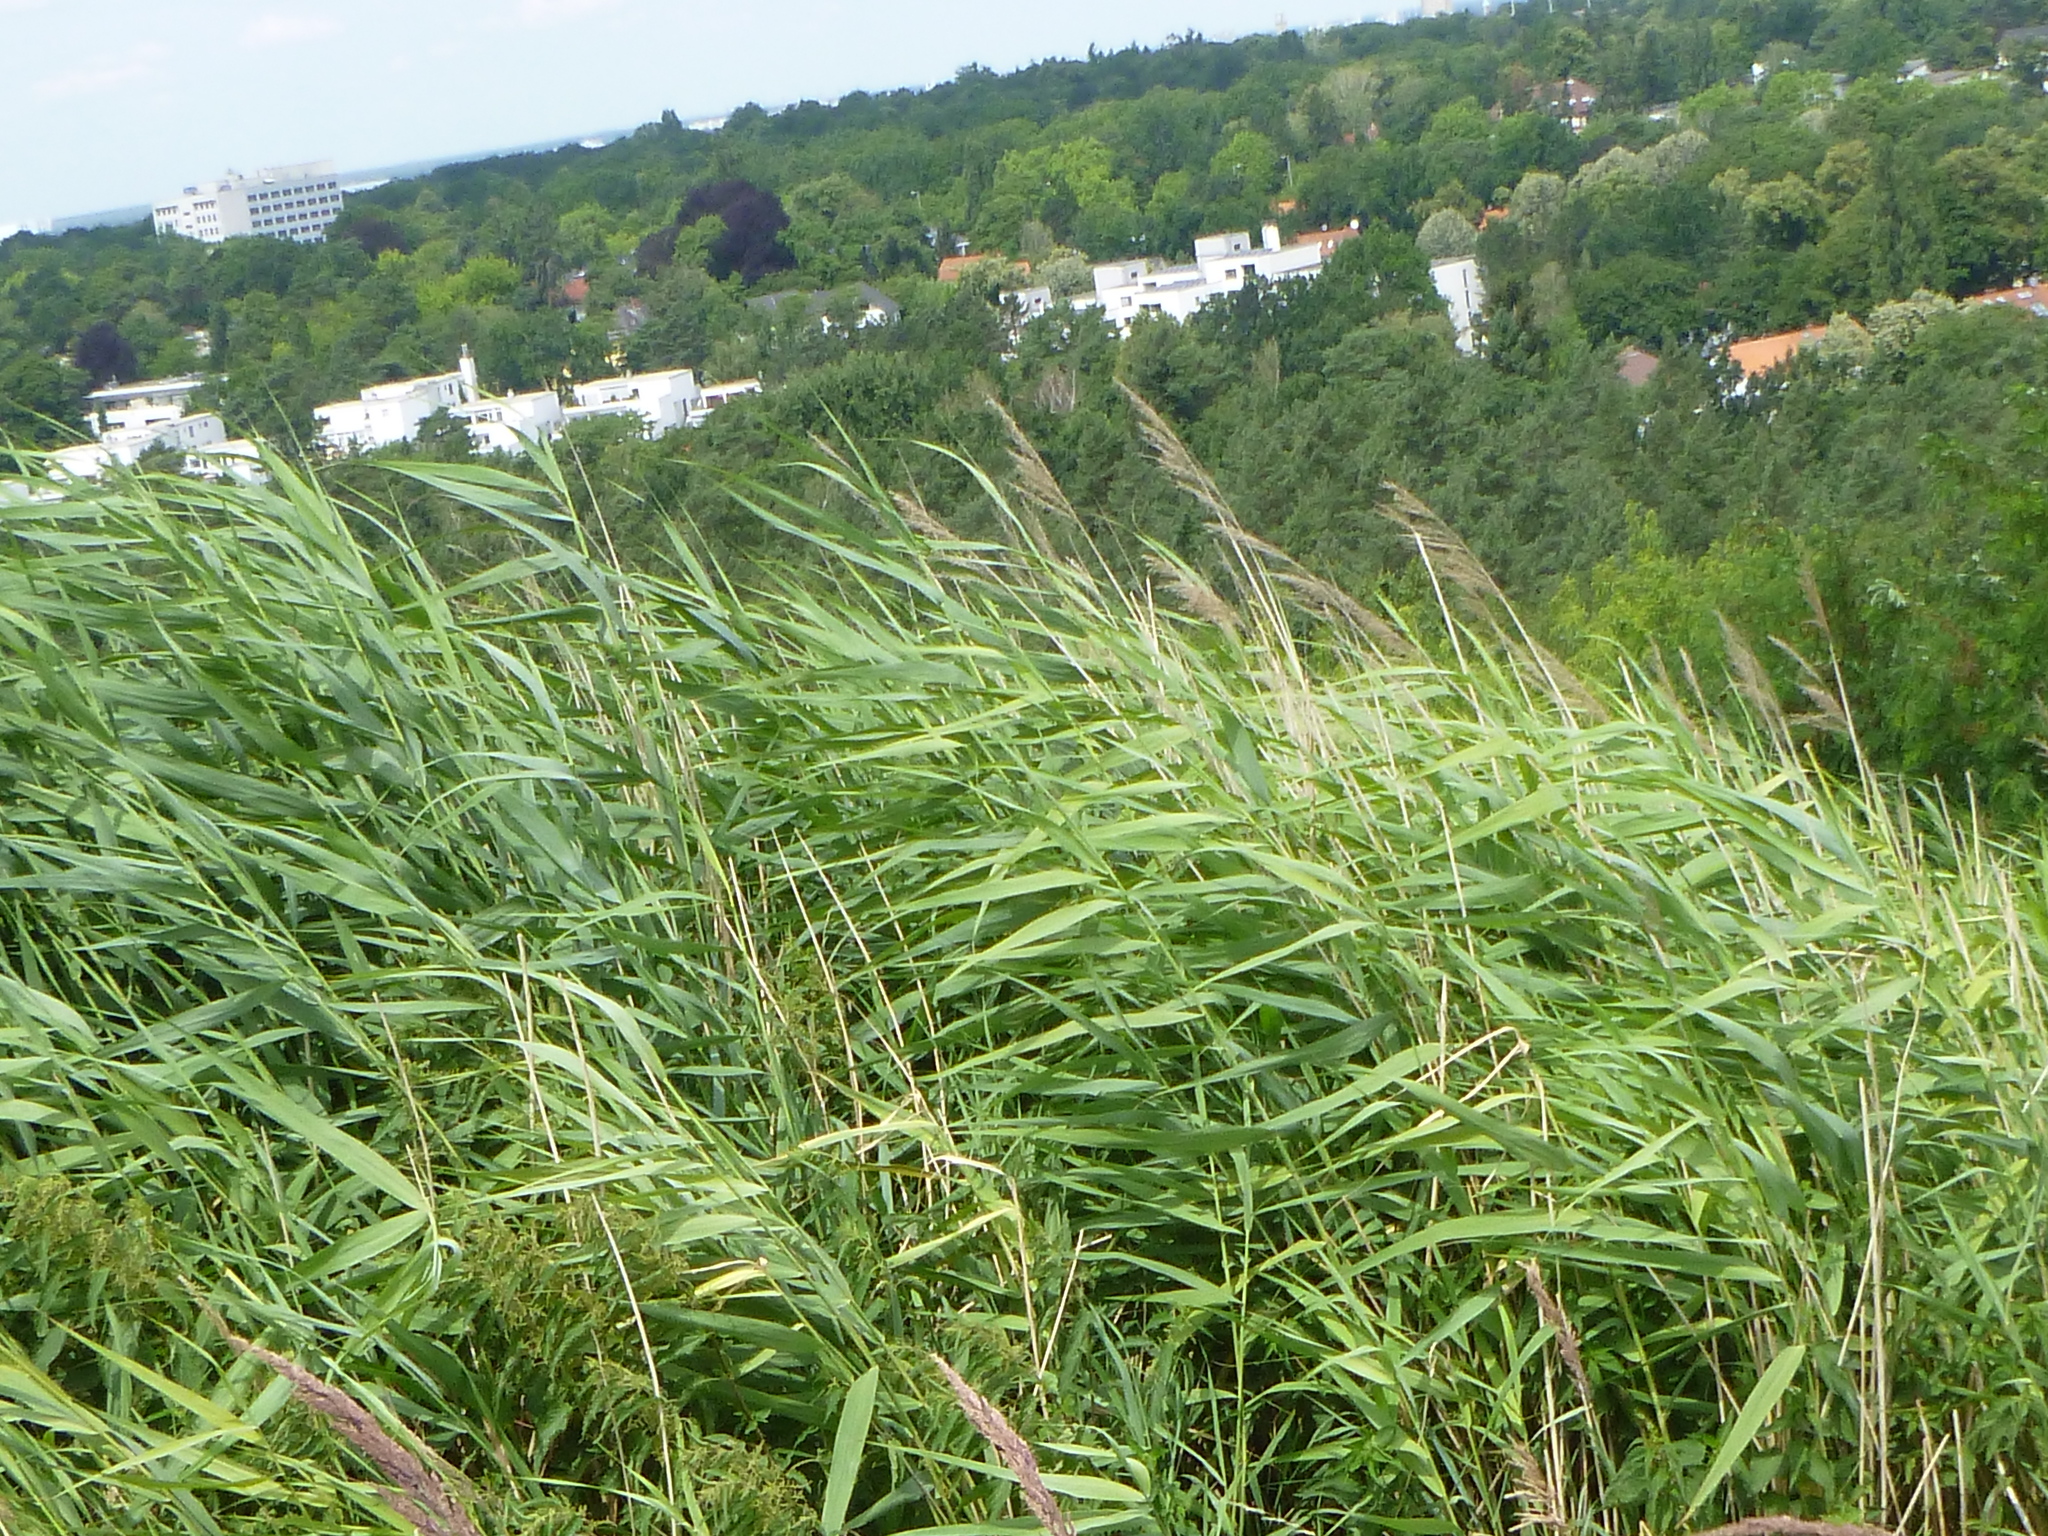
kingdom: Plantae
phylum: Tracheophyta
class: Liliopsida
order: Poales
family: Poaceae
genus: Phragmites
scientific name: Phragmites australis
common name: Common reed
